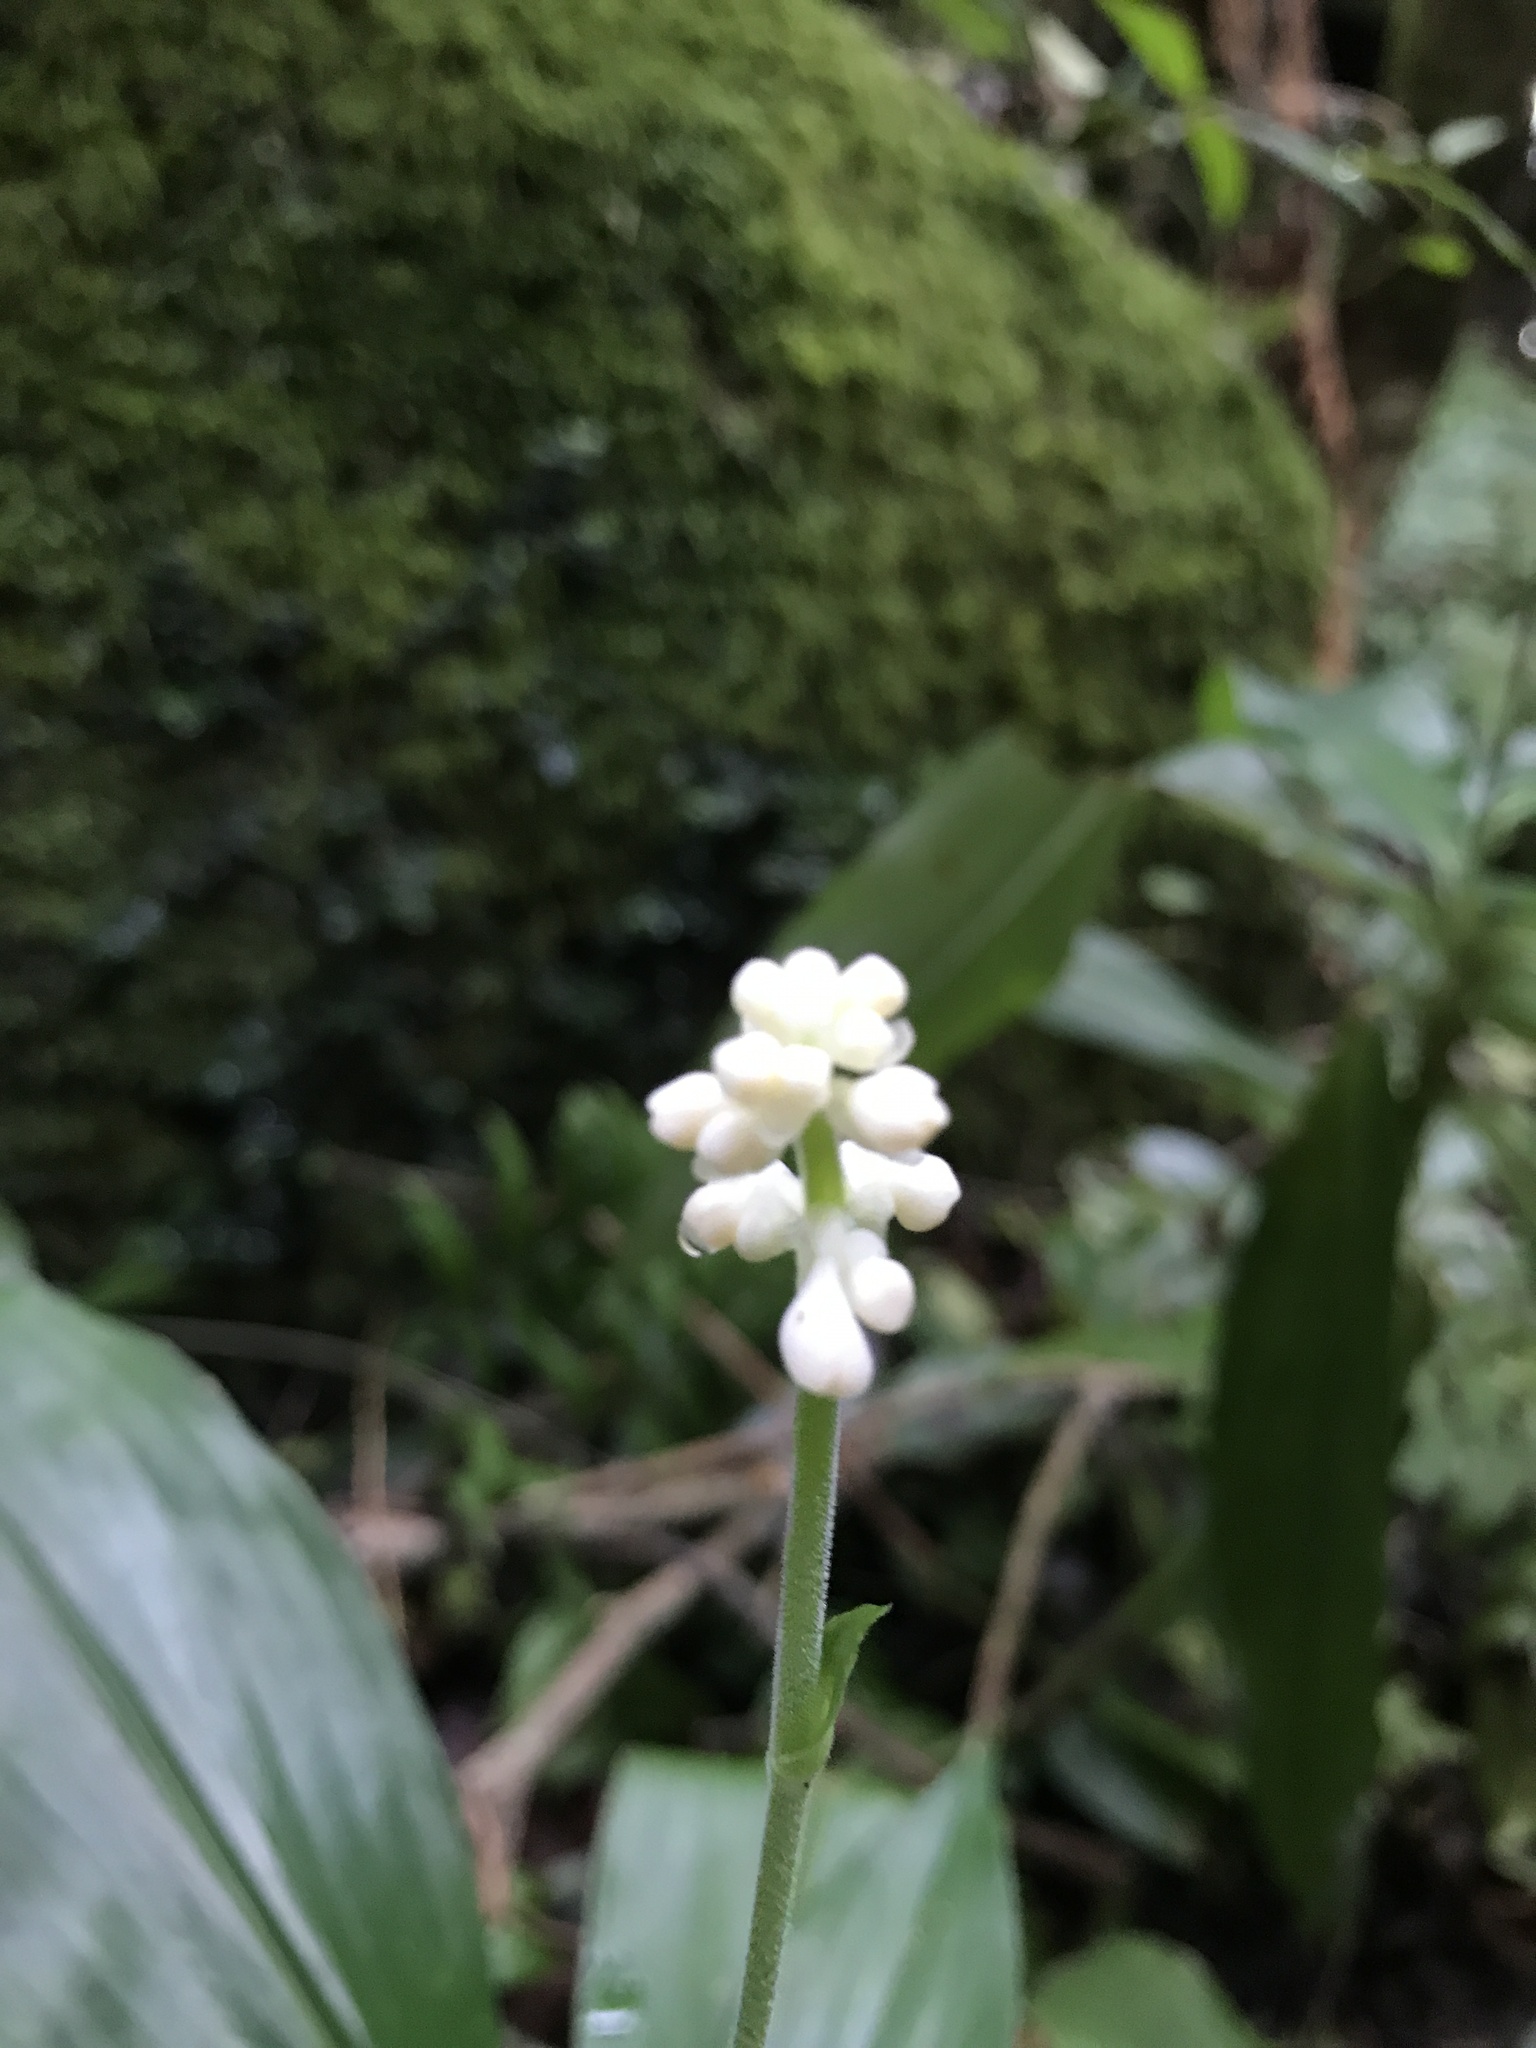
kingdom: Plantae
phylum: Tracheophyta
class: Liliopsida
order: Commelinales
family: Commelinaceae
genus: Pollia
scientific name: Pollia japonica
